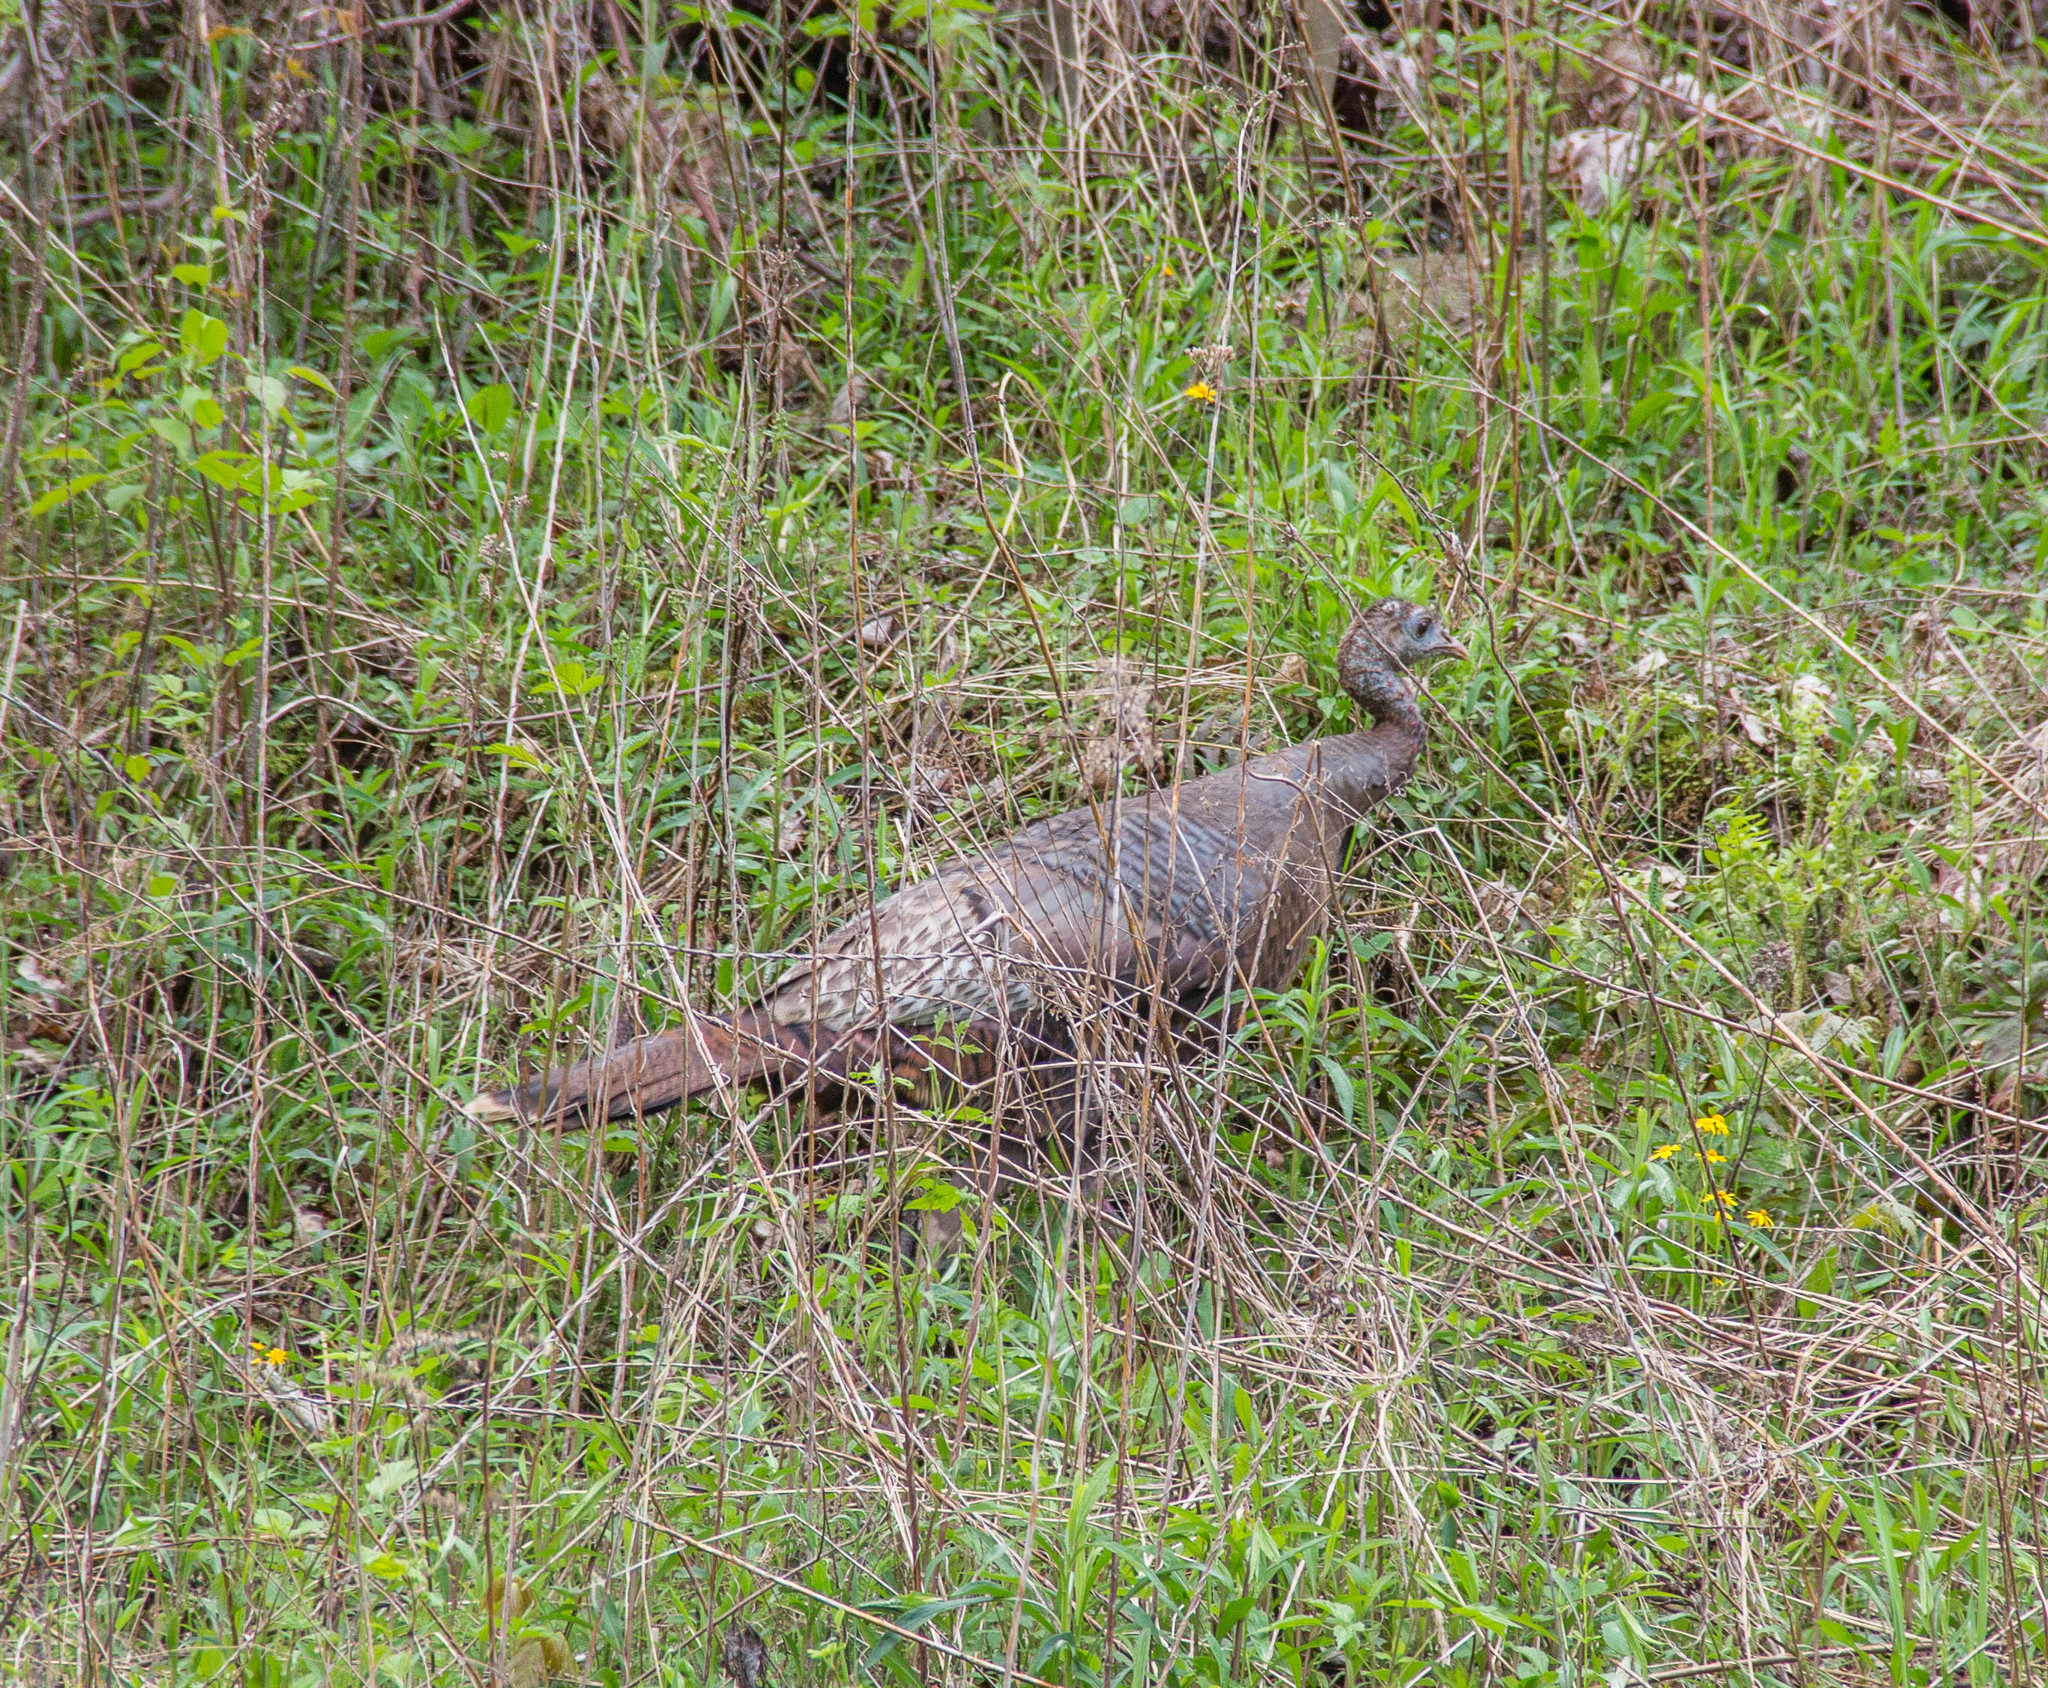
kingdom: Animalia
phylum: Chordata
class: Aves
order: Galliformes
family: Phasianidae
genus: Meleagris
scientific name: Meleagris gallopavo
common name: Wild turkey
